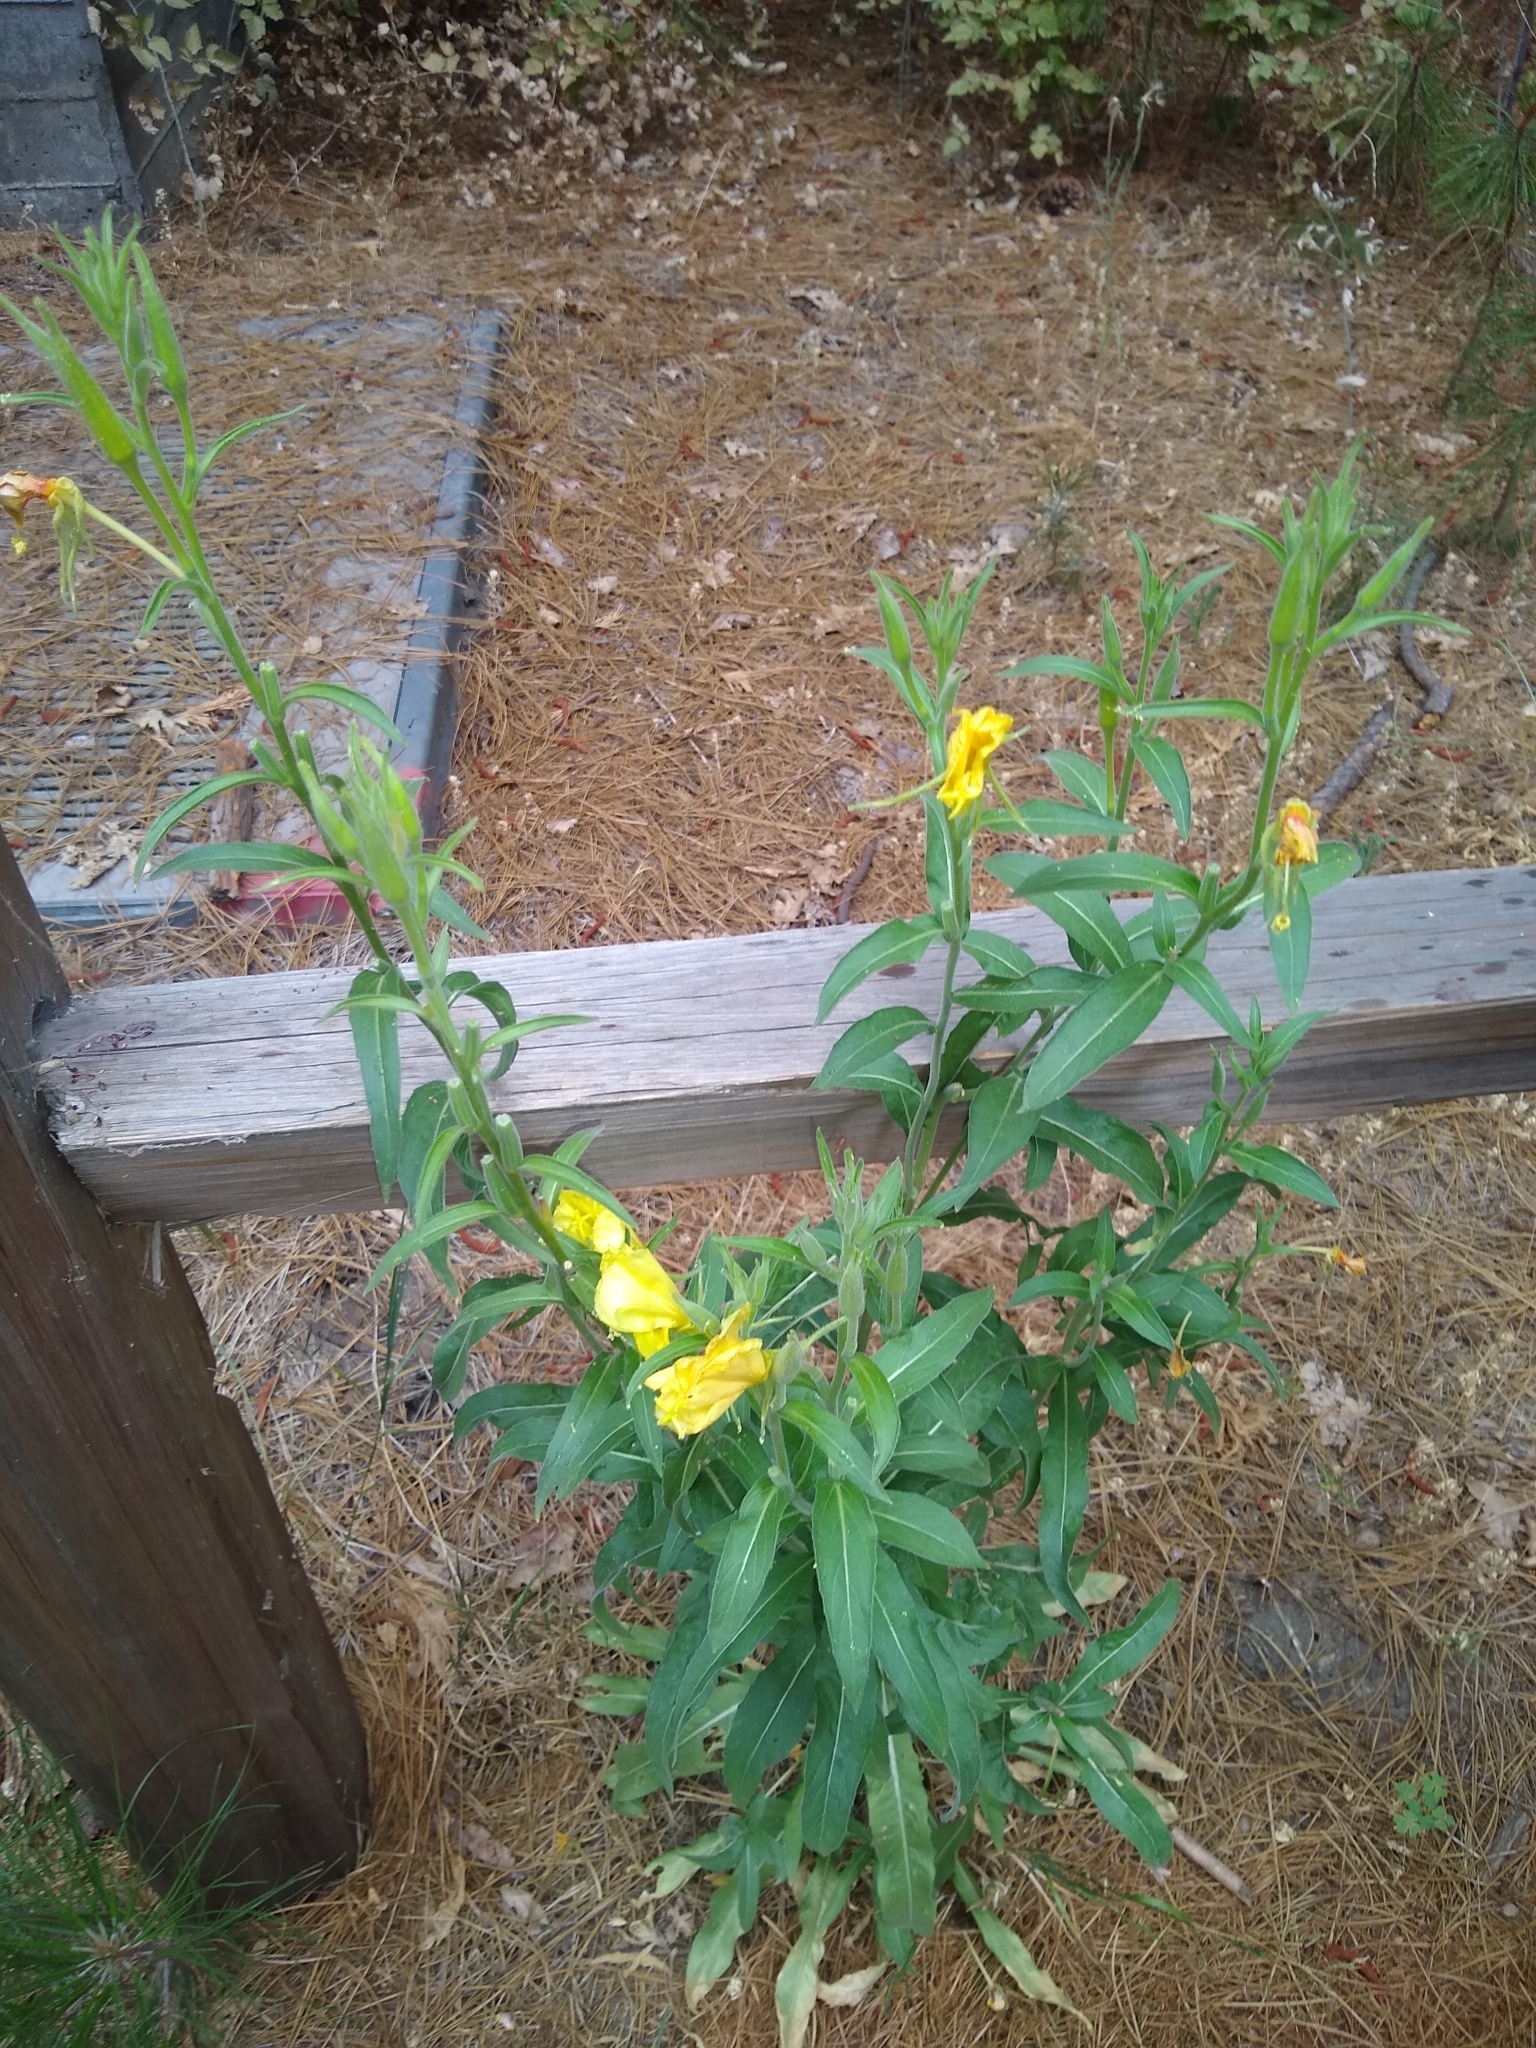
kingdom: Plantae
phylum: Tracheophyta
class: Magnoliopsida
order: Myrtales
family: Onagraceae
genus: Oenothera
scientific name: Oenothera elata
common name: Hooker's evening-primrose
